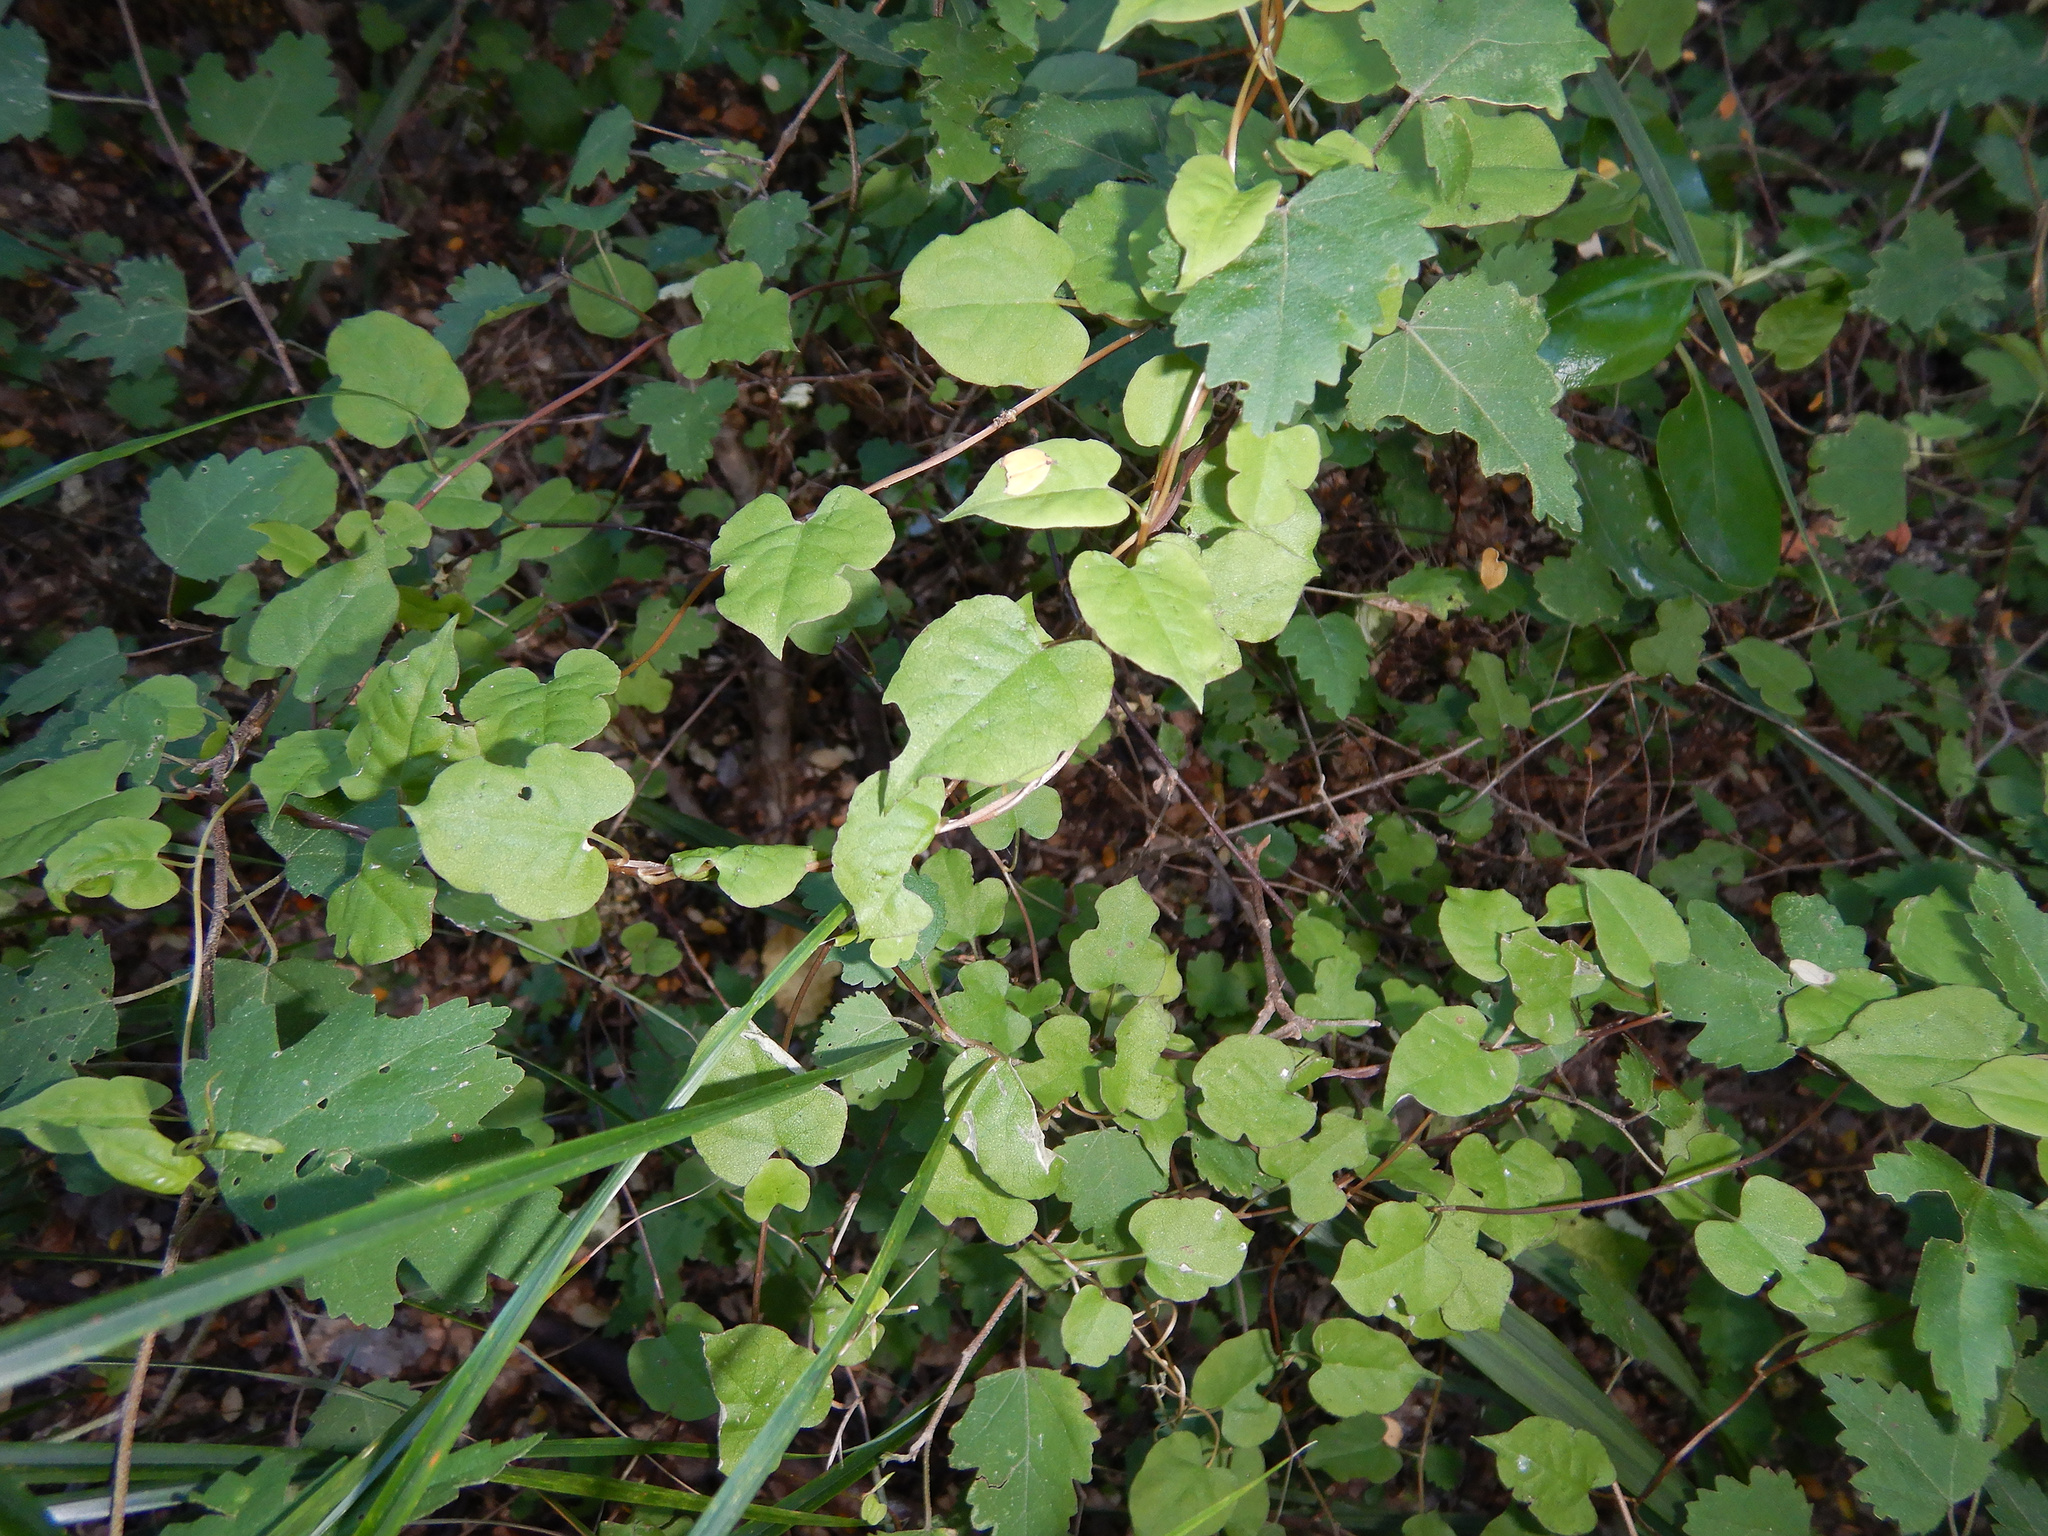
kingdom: Plantae
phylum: Tracheophyta
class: Magnoliopsida
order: Caryophyllales
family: Polygonaceae
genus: Muehlenbeckia
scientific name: Muehlenbeckia australis
